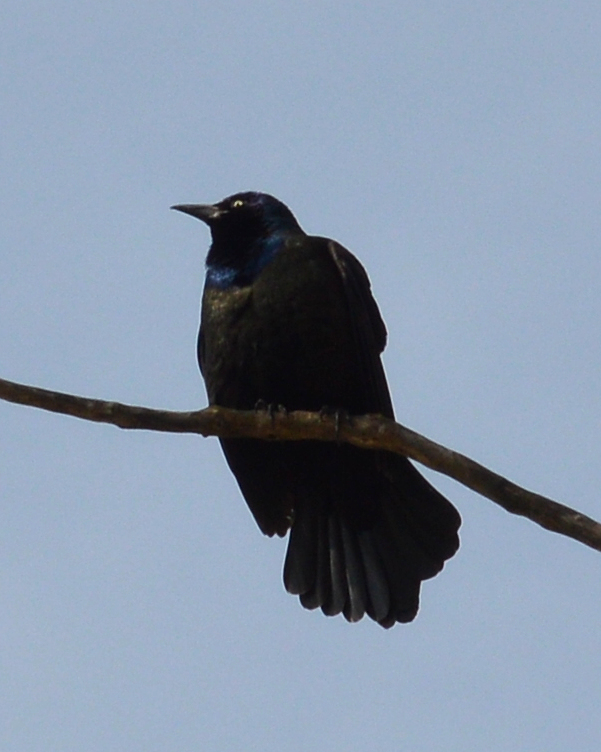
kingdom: Animalia
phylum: Chordata
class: Aves
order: Passeriformes
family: Icteridae
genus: Quiscalus
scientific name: Quiscalus quiscula
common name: Common grackle
